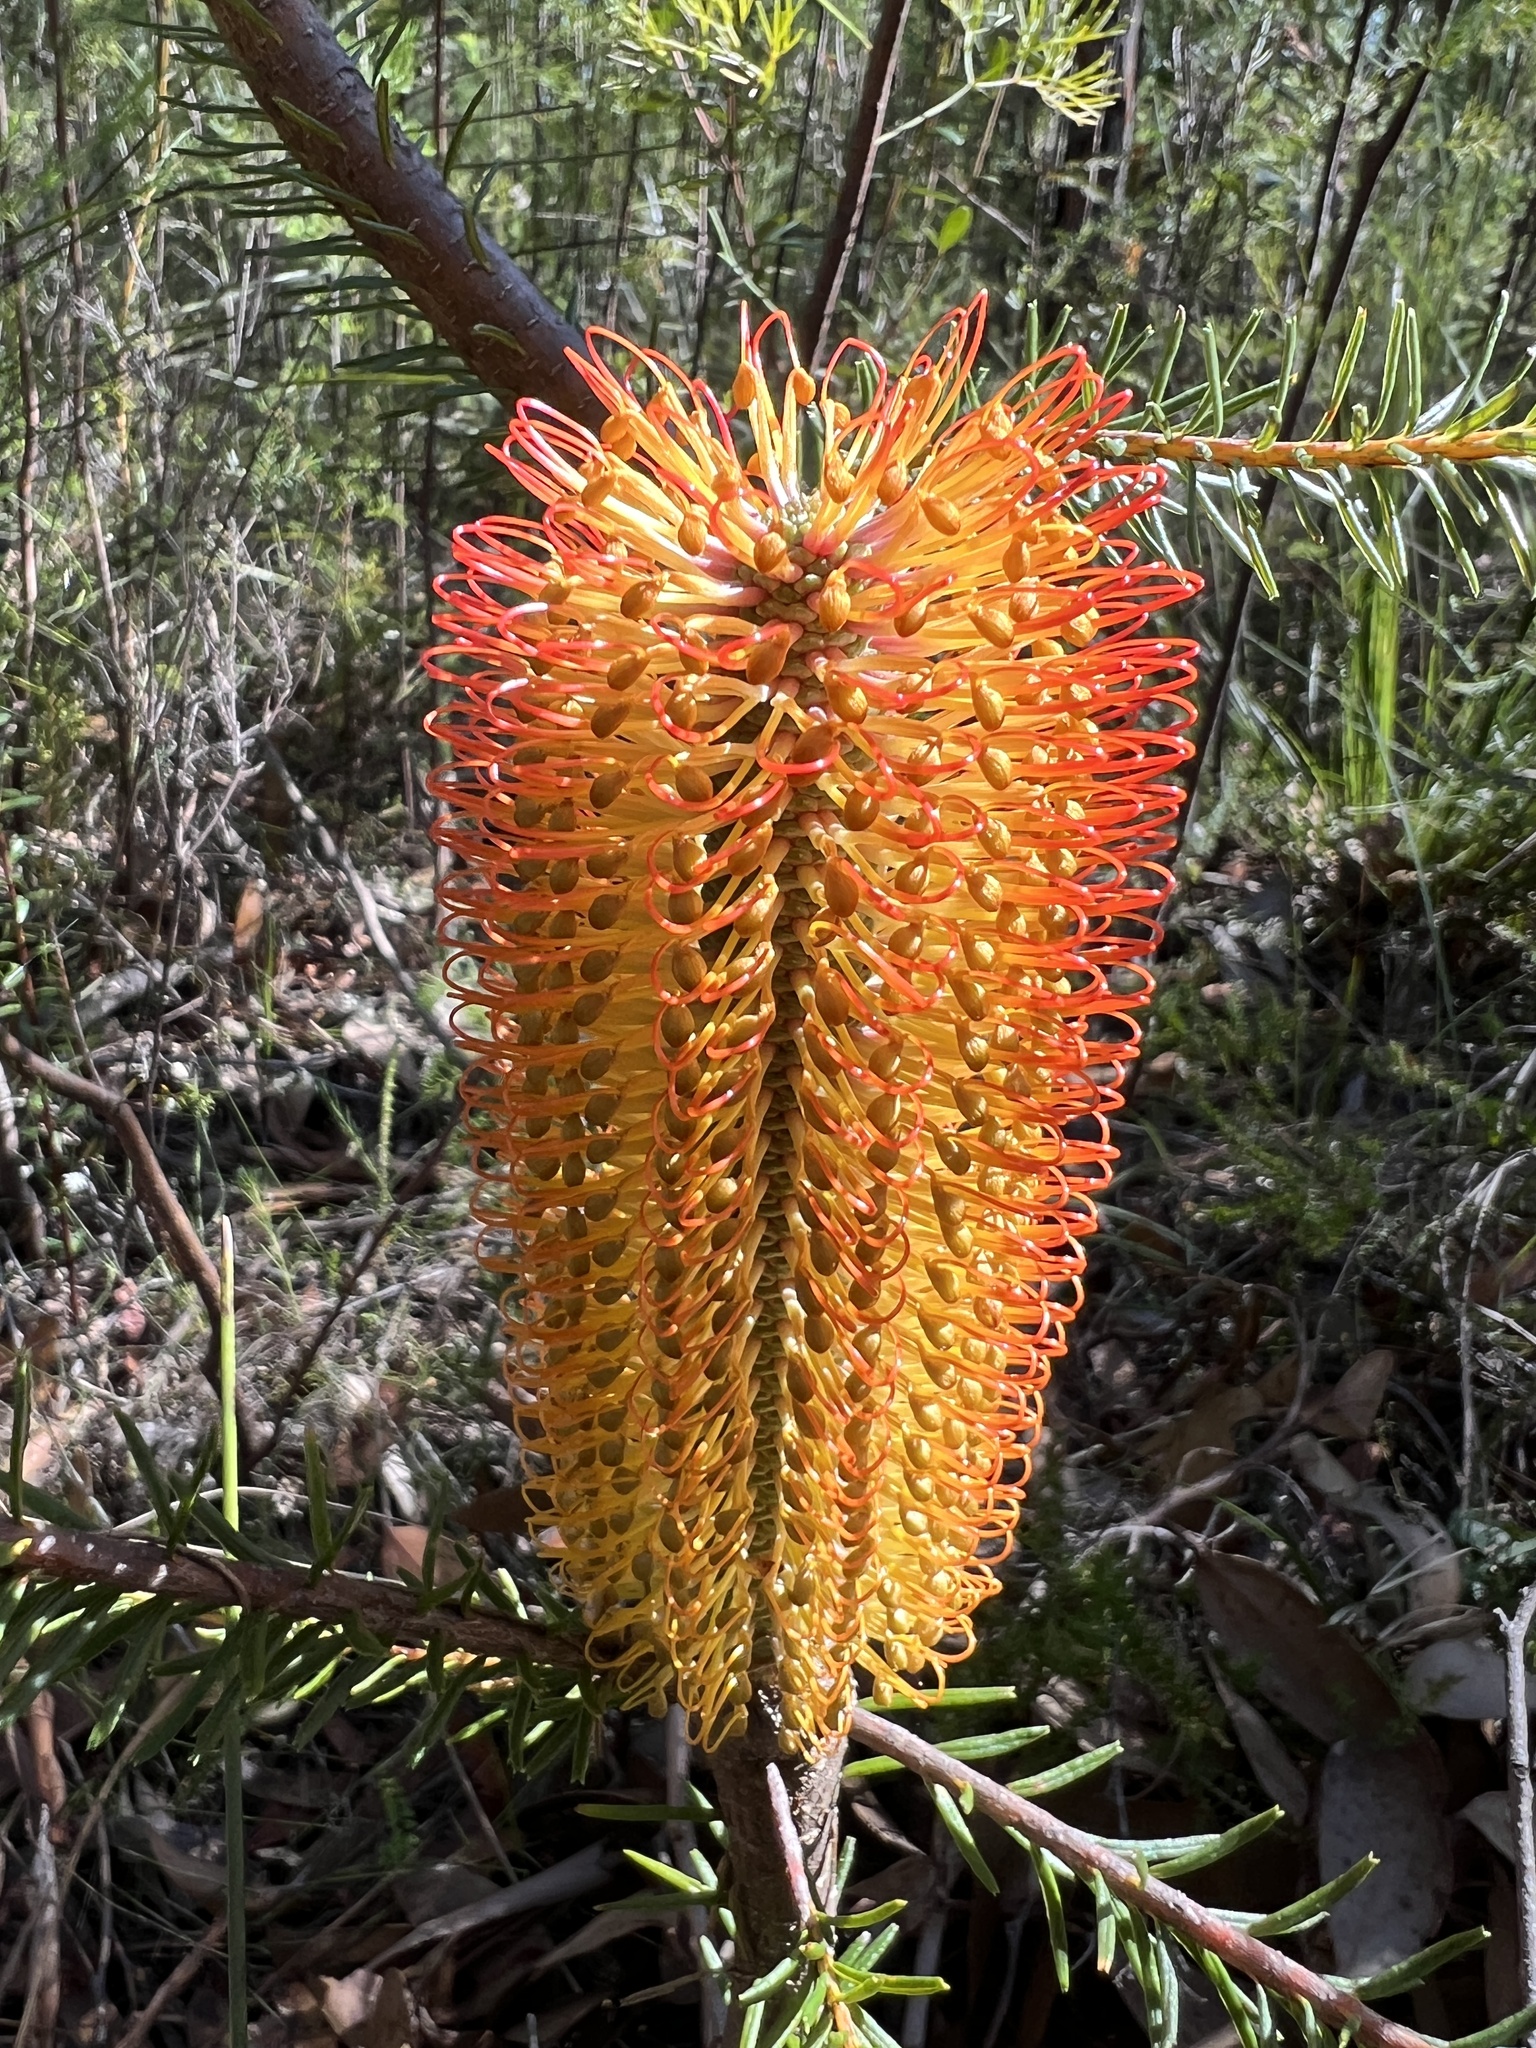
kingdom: Plantae
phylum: Tracheophyta
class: Magnoliopsida
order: Proteales
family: Proteaceae
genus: Banksia
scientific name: Banksia ericifolia
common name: Heath-leaf banksia
